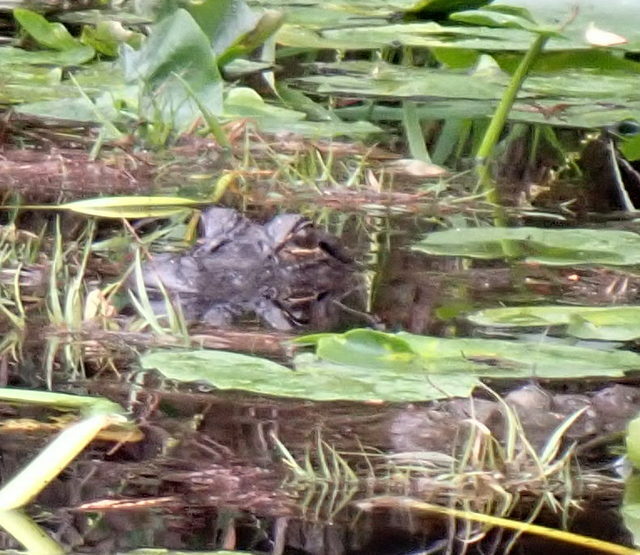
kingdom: Animalia
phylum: Chordata
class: Crocodylia
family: Alligatoridae
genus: Alligator
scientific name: Alligator mississippiensis
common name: American alligator
